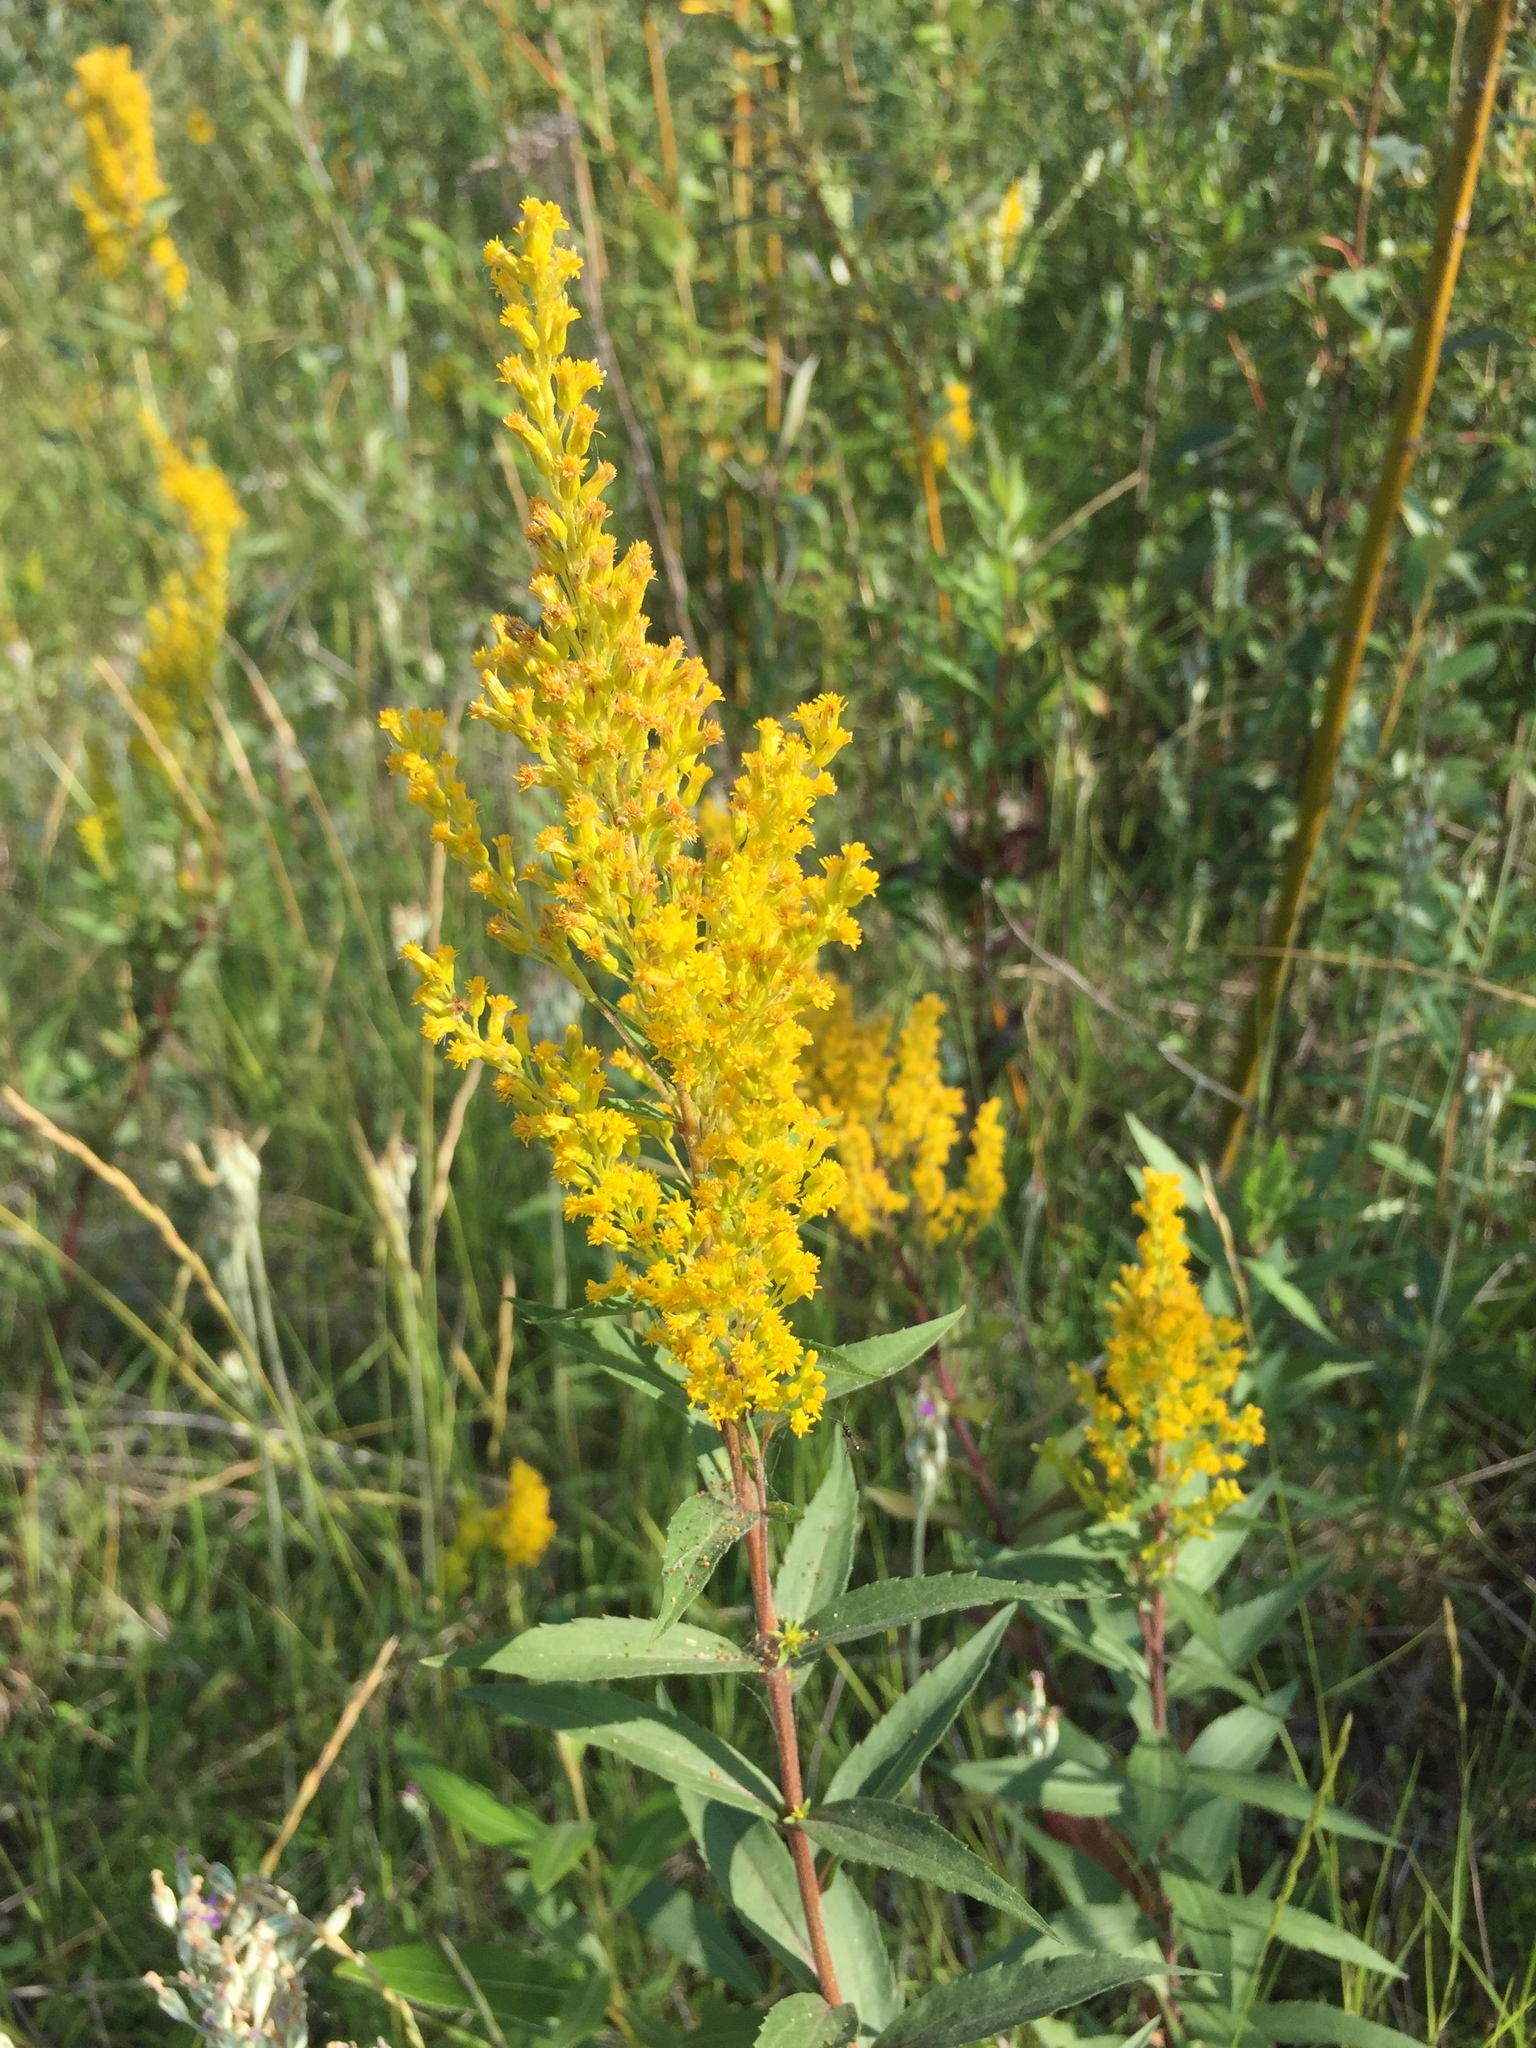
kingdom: Plantae
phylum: Tracheophyta
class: Magnoliopsida
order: Asterales
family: Asteraceae
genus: Solidago
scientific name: Solidago lepida
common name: Western canada goldenrod
